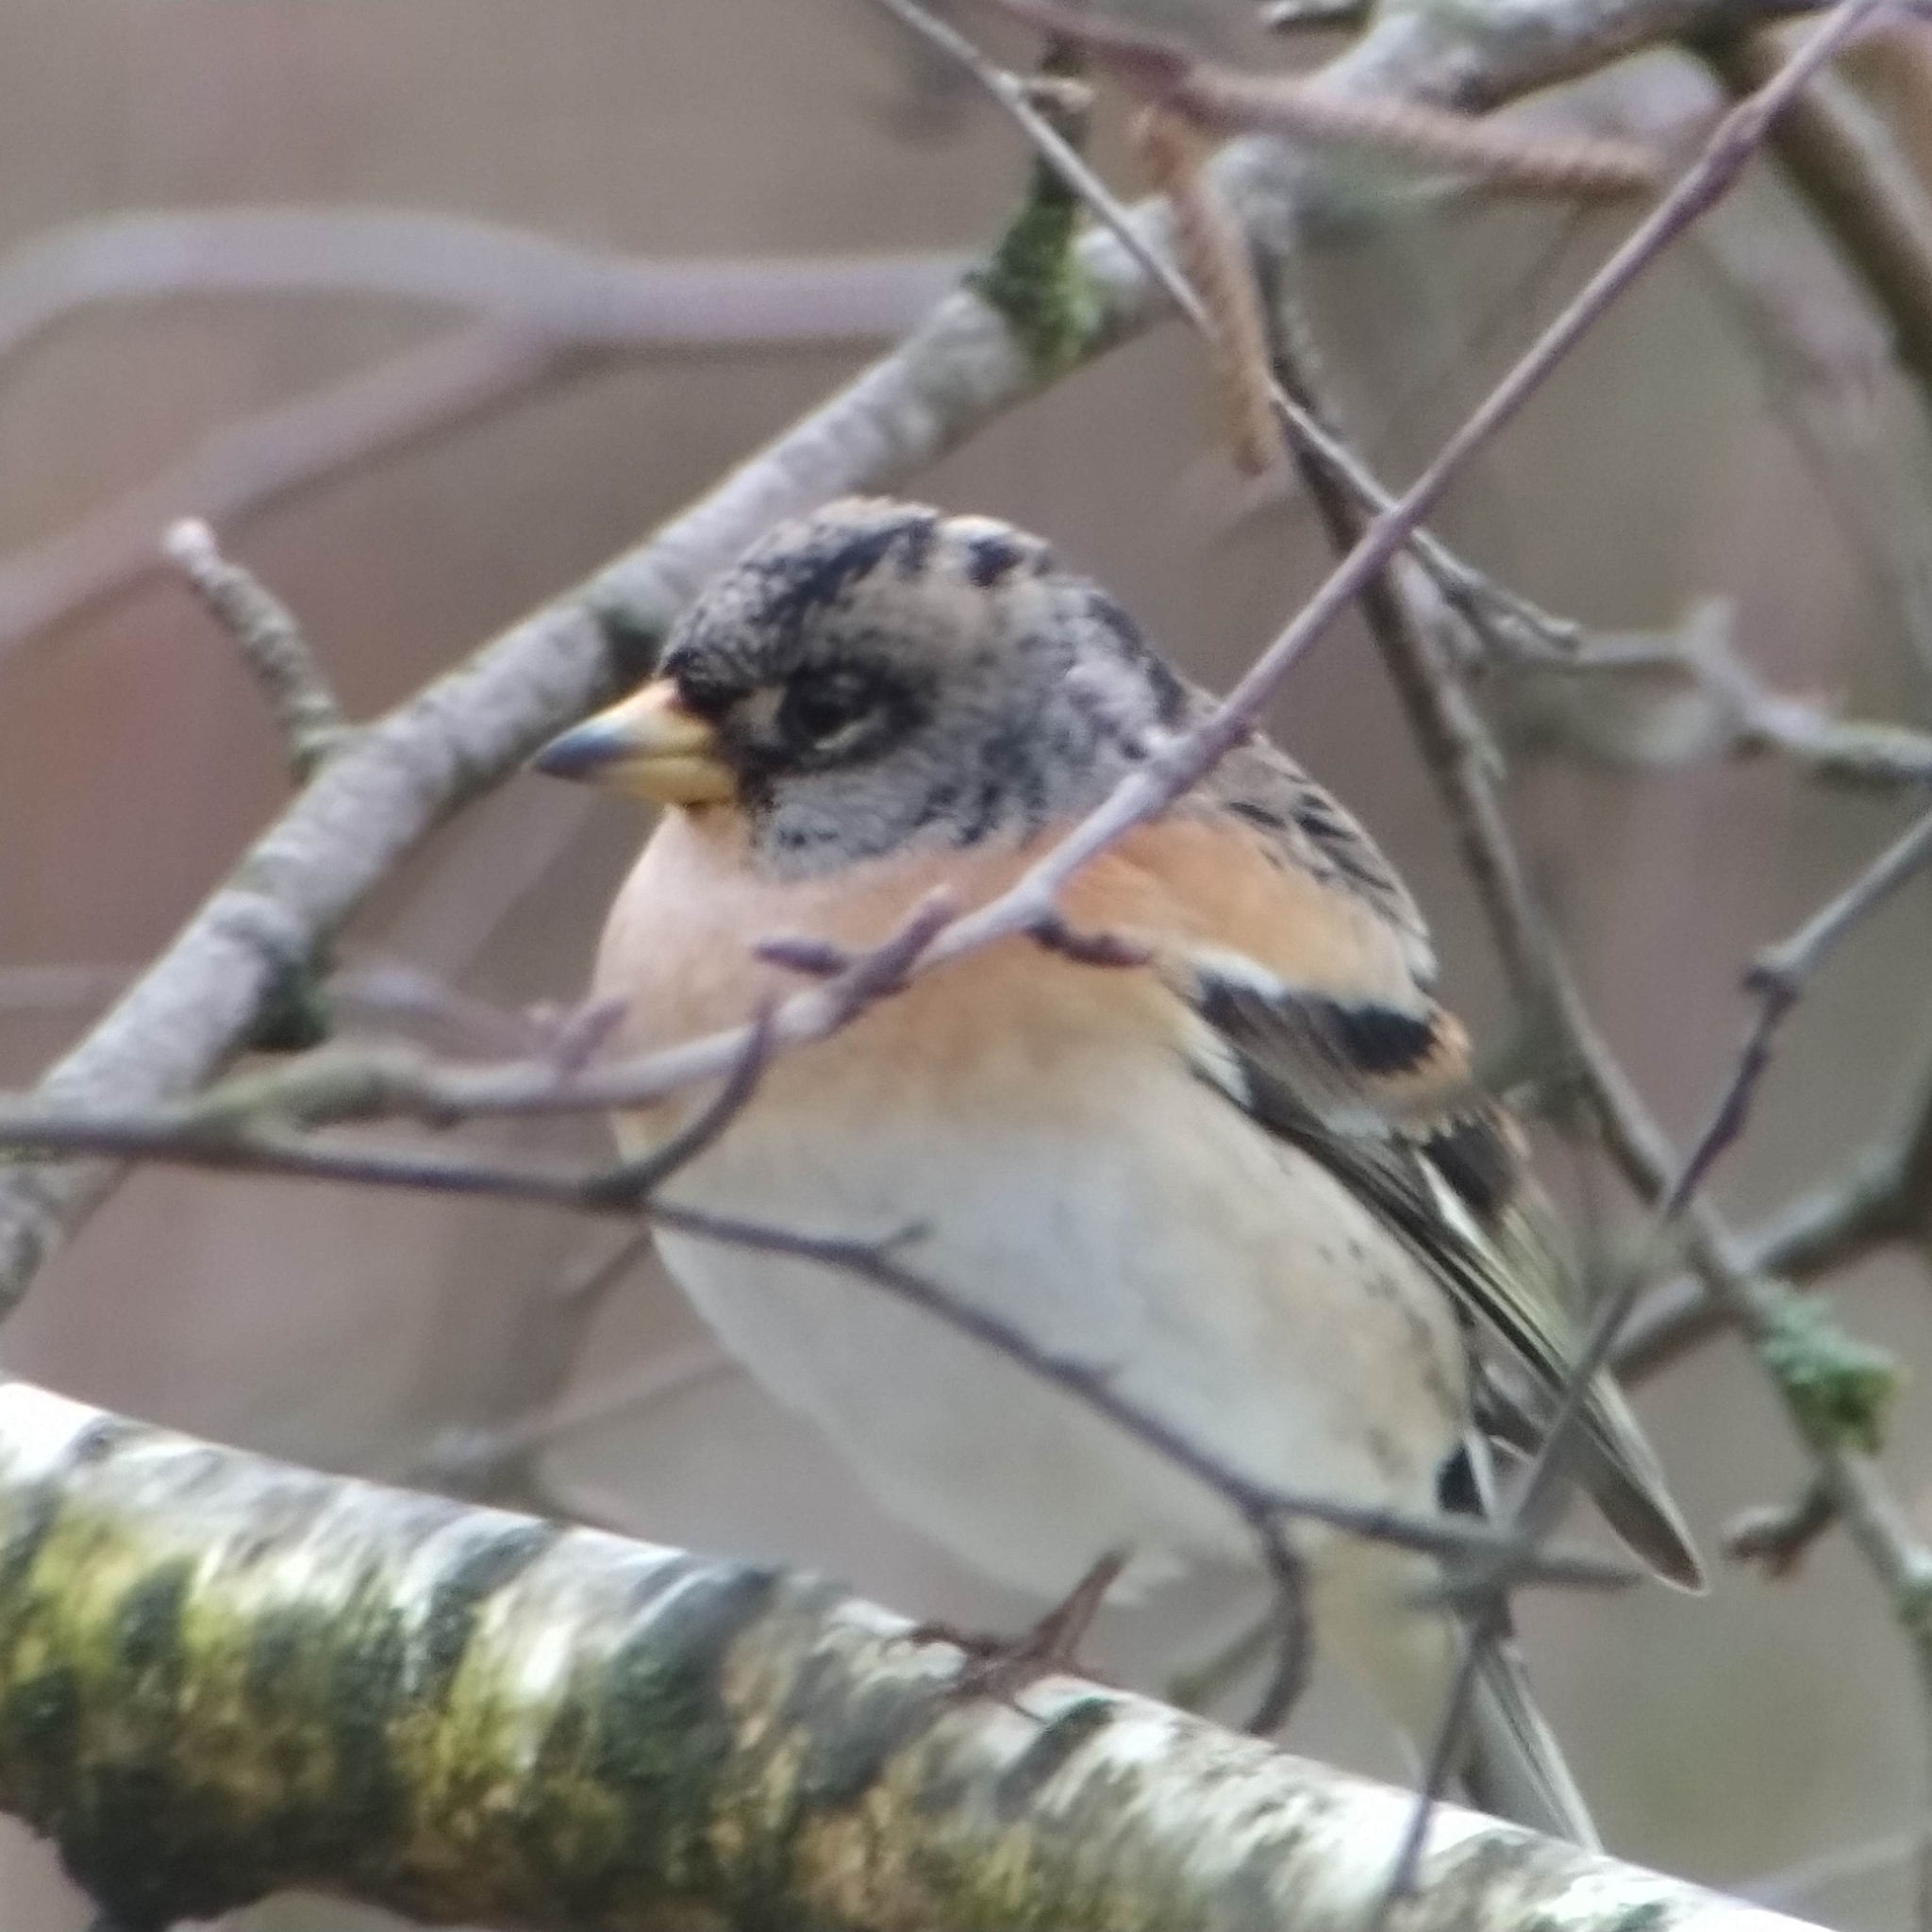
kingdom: Animalia
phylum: Chordata
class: Aves
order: Passeriformes
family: Fringillidae
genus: Fringilla
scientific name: Fringilla montifringilla
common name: Brambling
